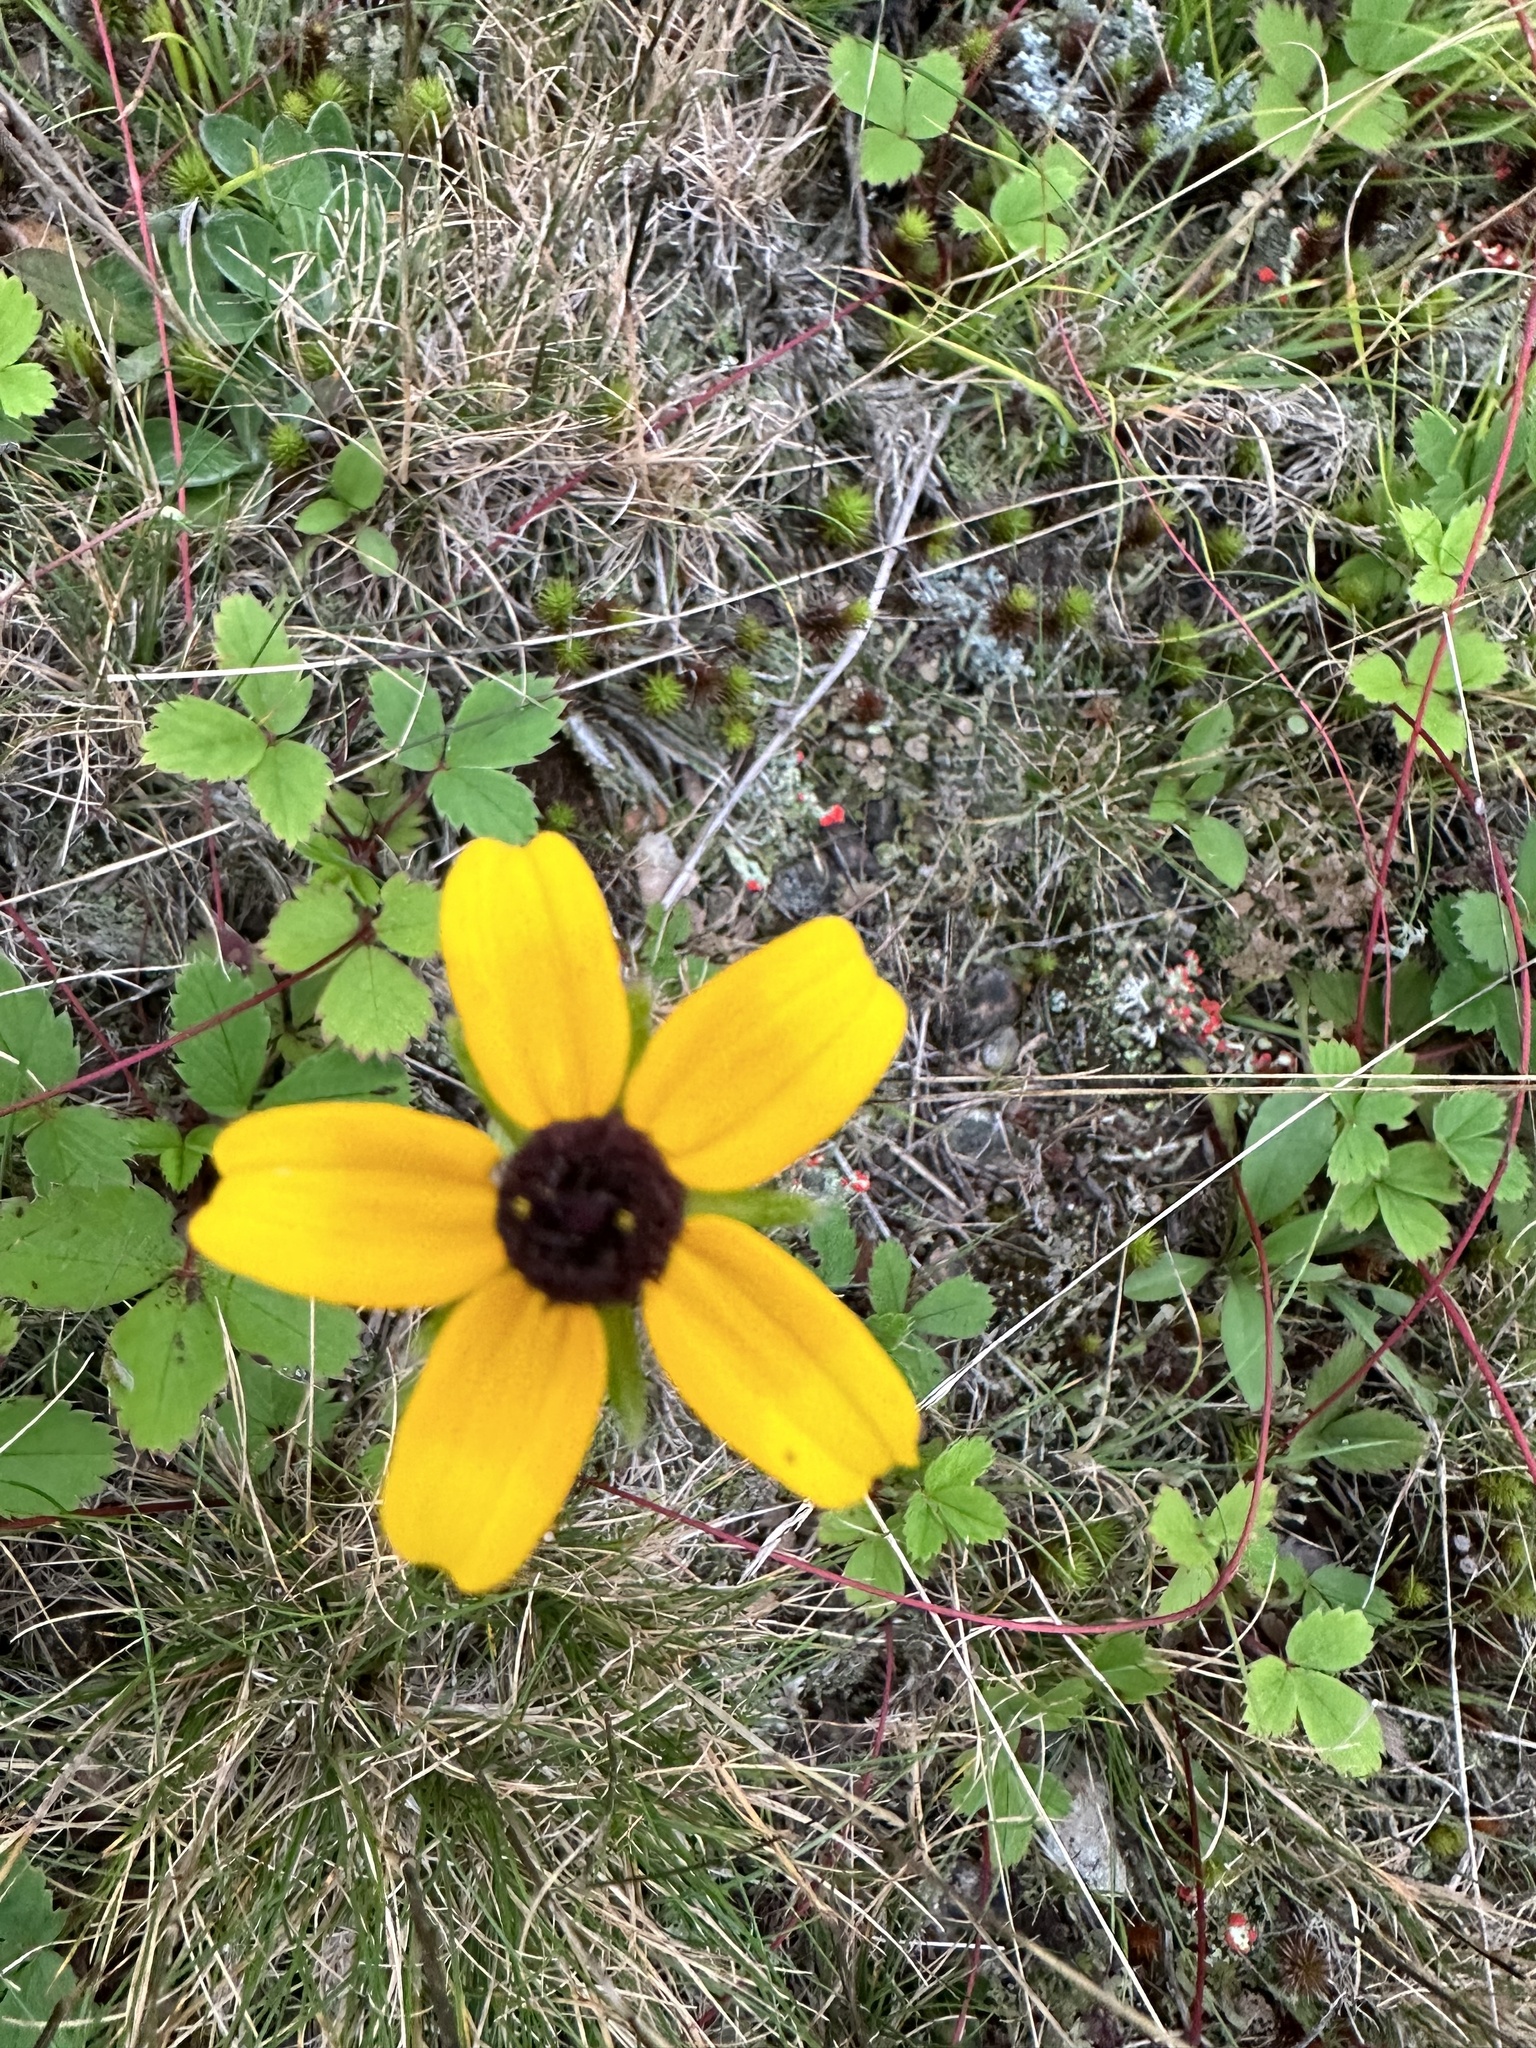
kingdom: Plantae
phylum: Tracheophyta
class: Magnoliopsida
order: Asterales
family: Asteraceae
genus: Rudbeckia
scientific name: Rudbeckia hirta
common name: Black-eyed-susan
